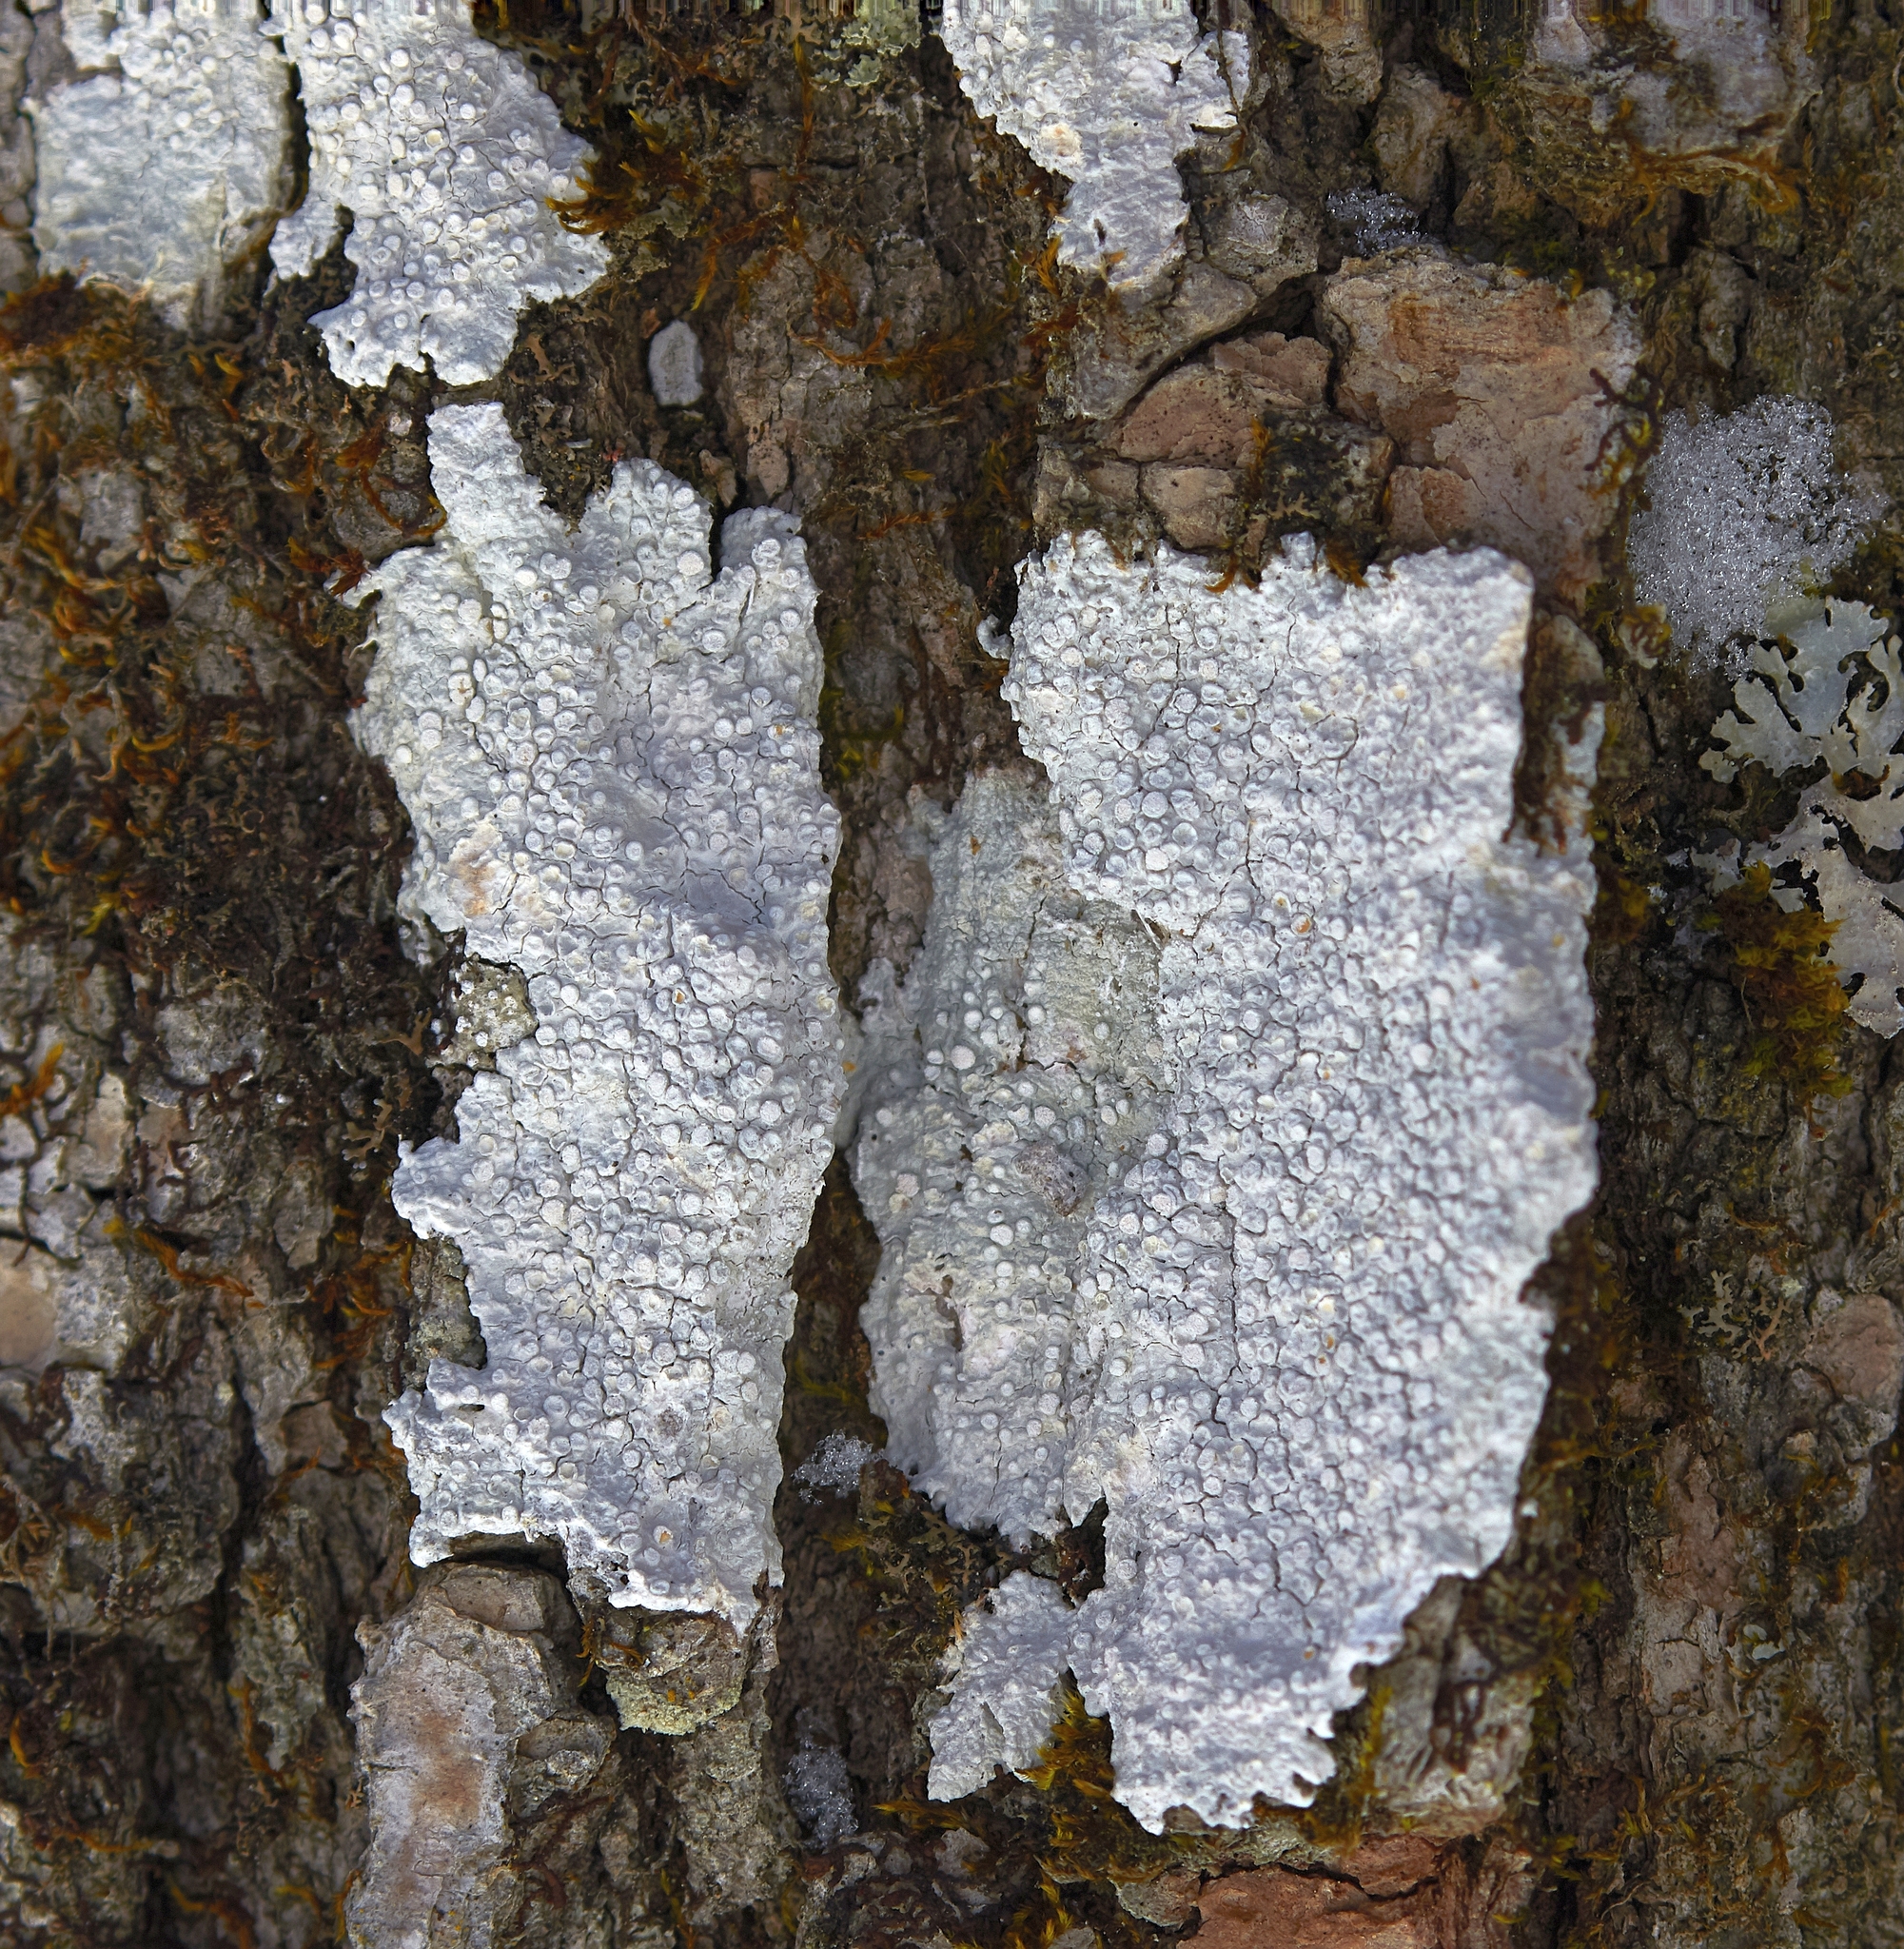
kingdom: Fungi
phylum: Ascomycota
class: Lecanoromycetes
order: Pertusariales
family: Varicellariaceae
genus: Varicellaria
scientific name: Varicellaria velata
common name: Rimmed wart lichen
